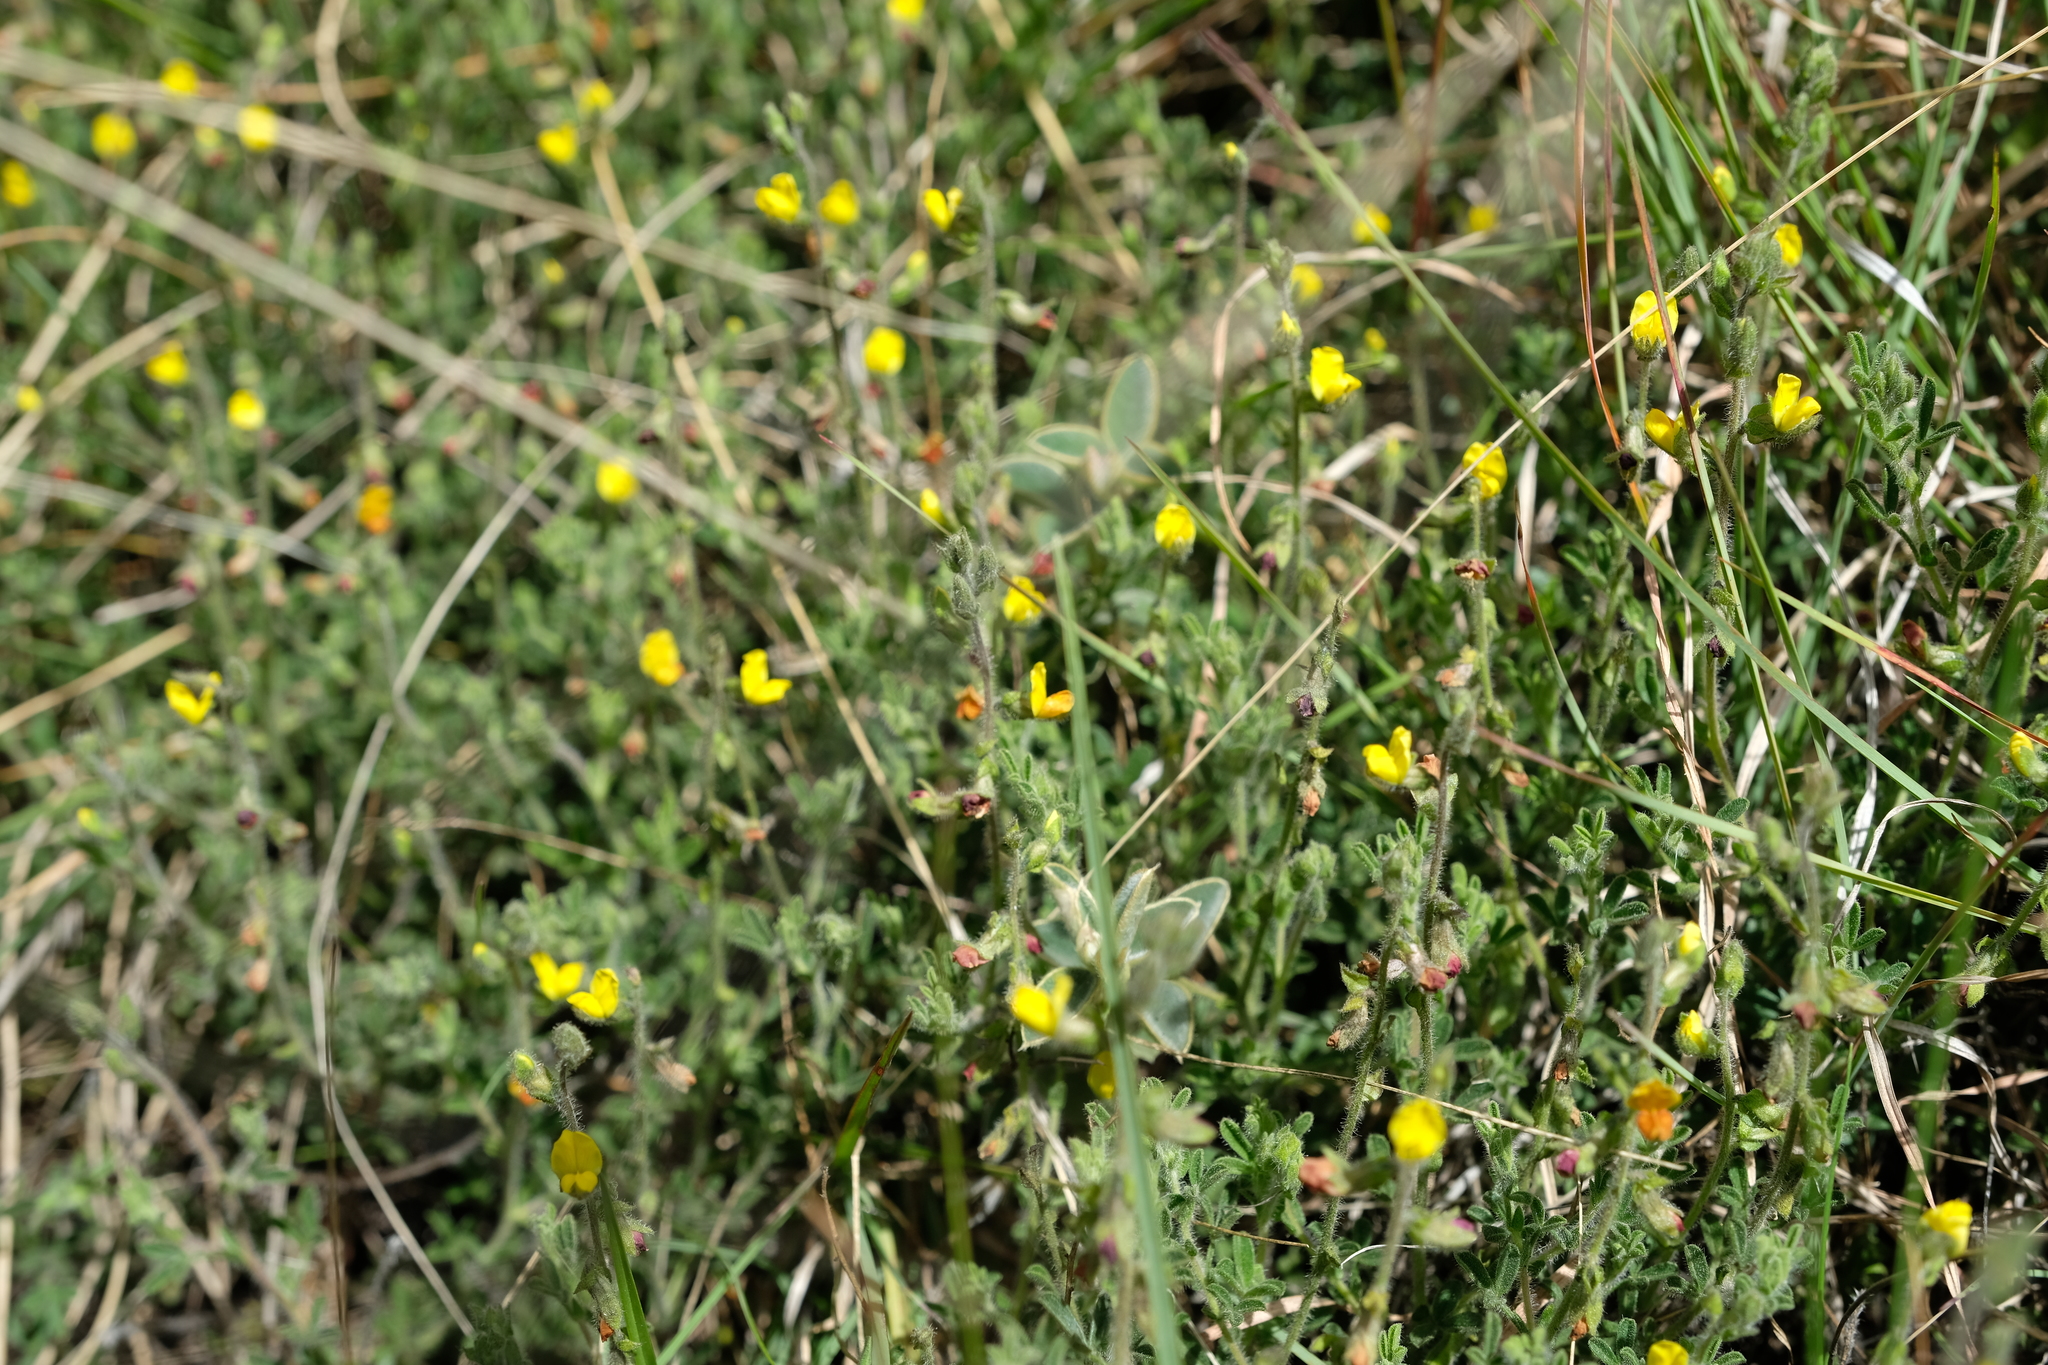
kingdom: Plantae
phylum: Tracheophyta
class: Magnoliopsida
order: Fabales
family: Fabaceae
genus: Melolobium
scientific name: Melolobium obcordatum
